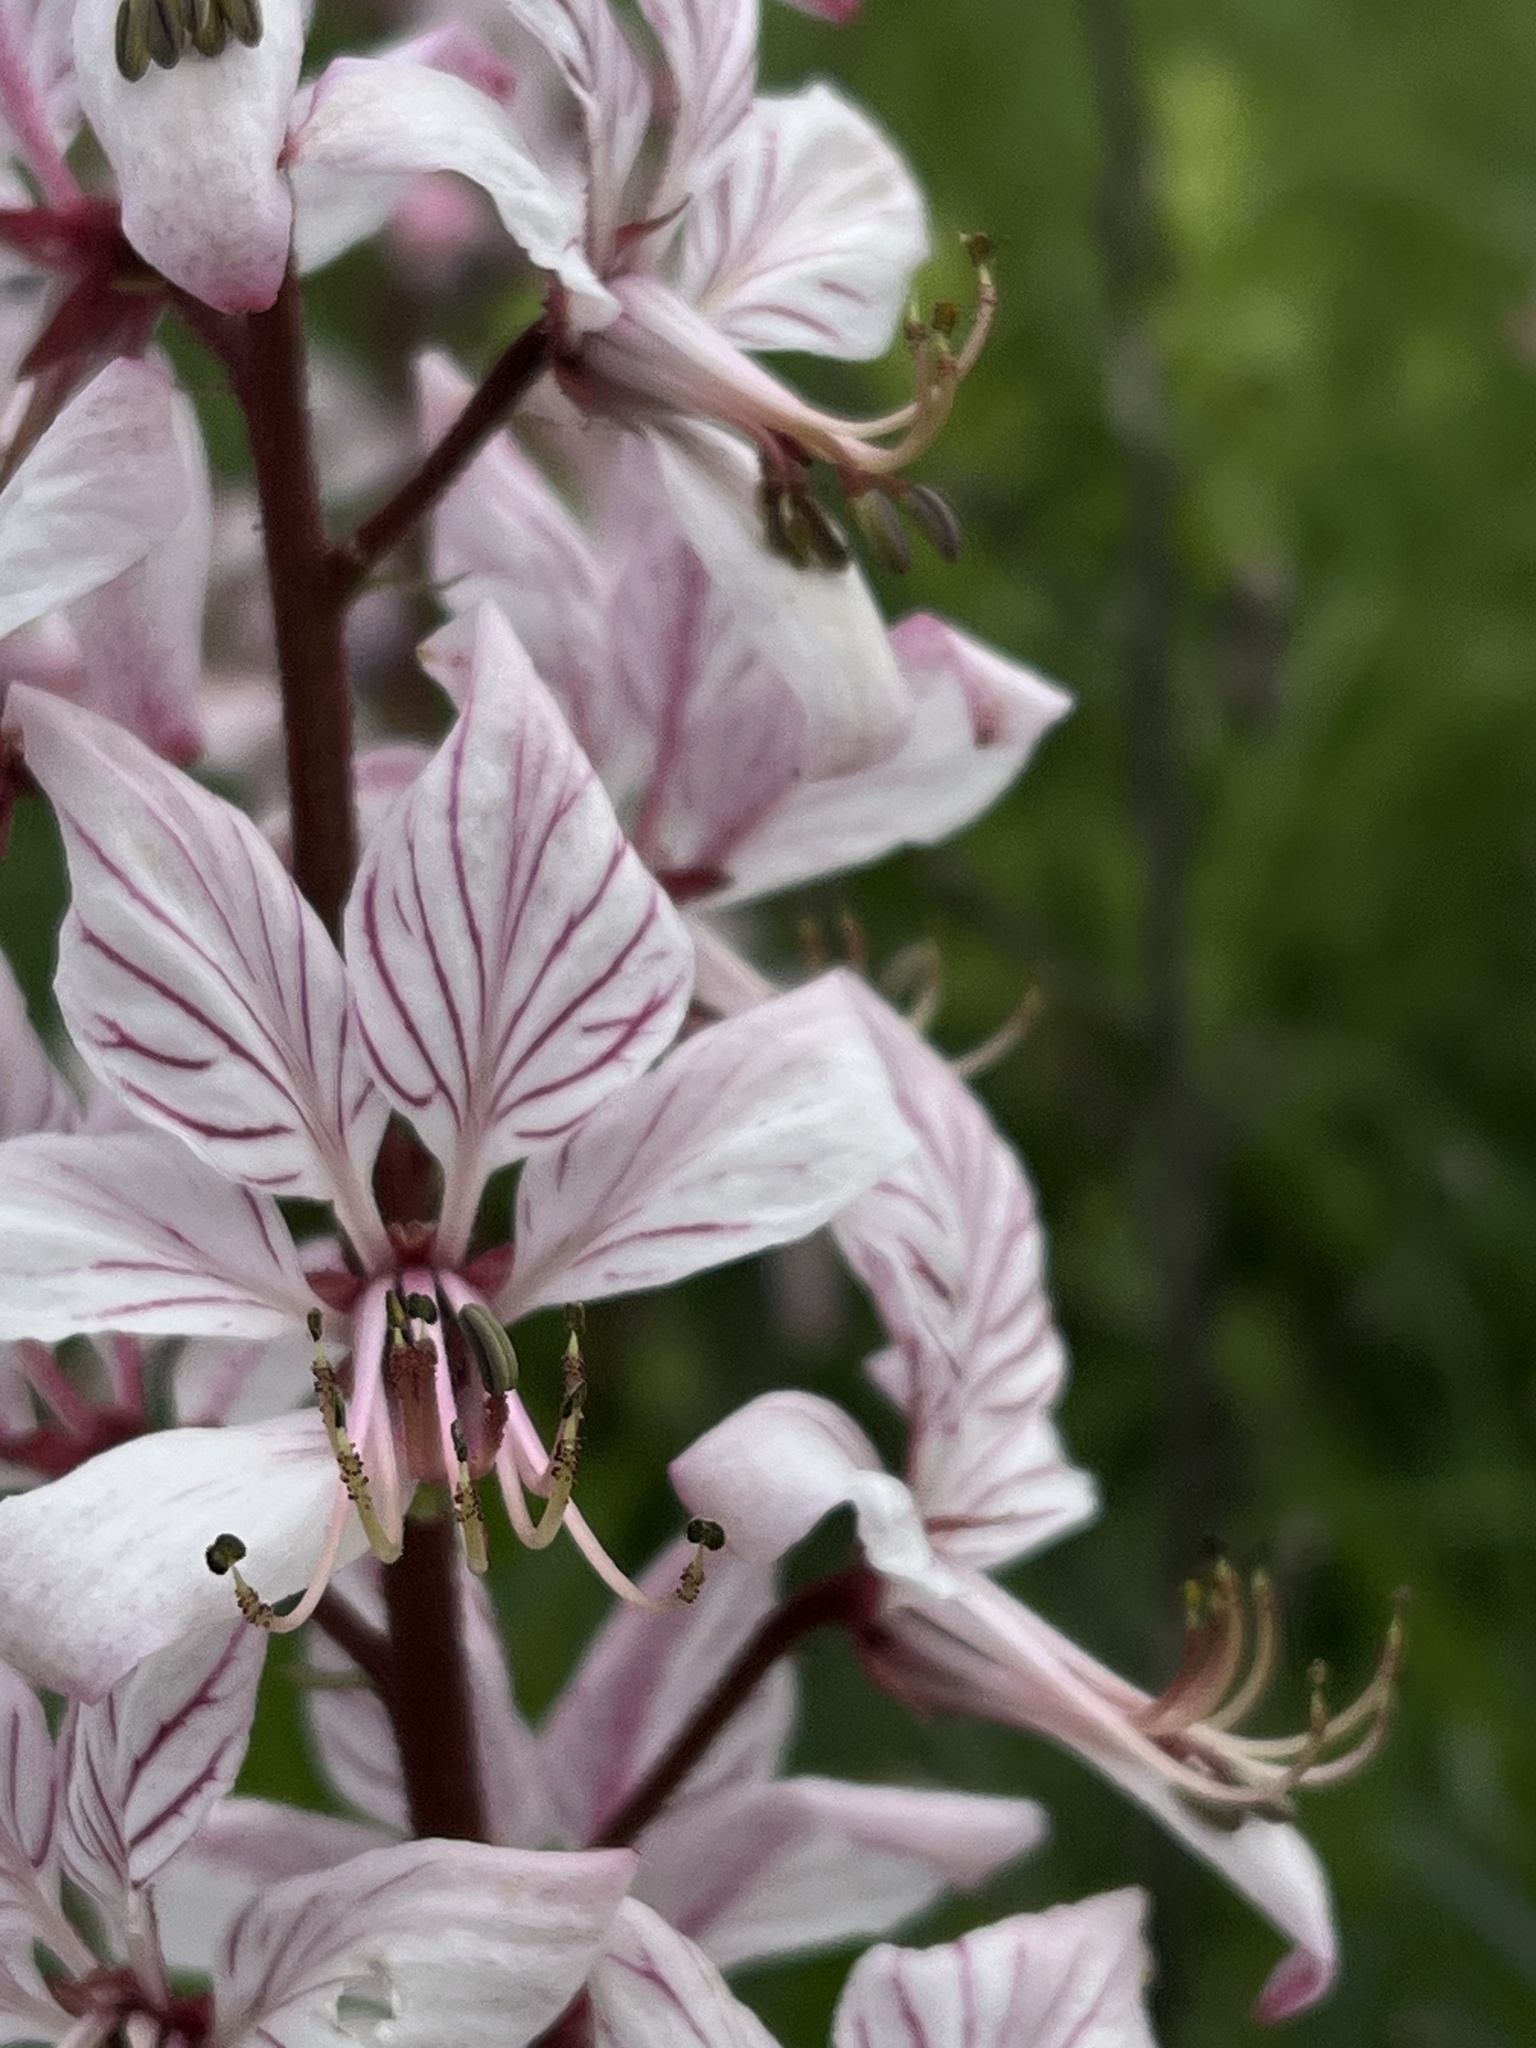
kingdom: Plantae
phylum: Tracheophyta
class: Magnoliopsida
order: Sapindales
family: Rutaceae
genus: Dictamnus
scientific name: Dictamnus albus
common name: Gasplant
